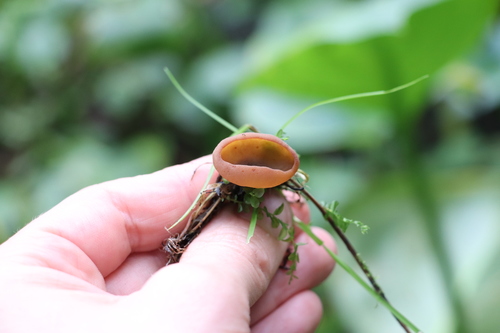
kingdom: Fungi
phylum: Ascomycota
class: Pezizomycetes
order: Pezizales
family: Pezizaceae
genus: Legaliana
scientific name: Legaliana
